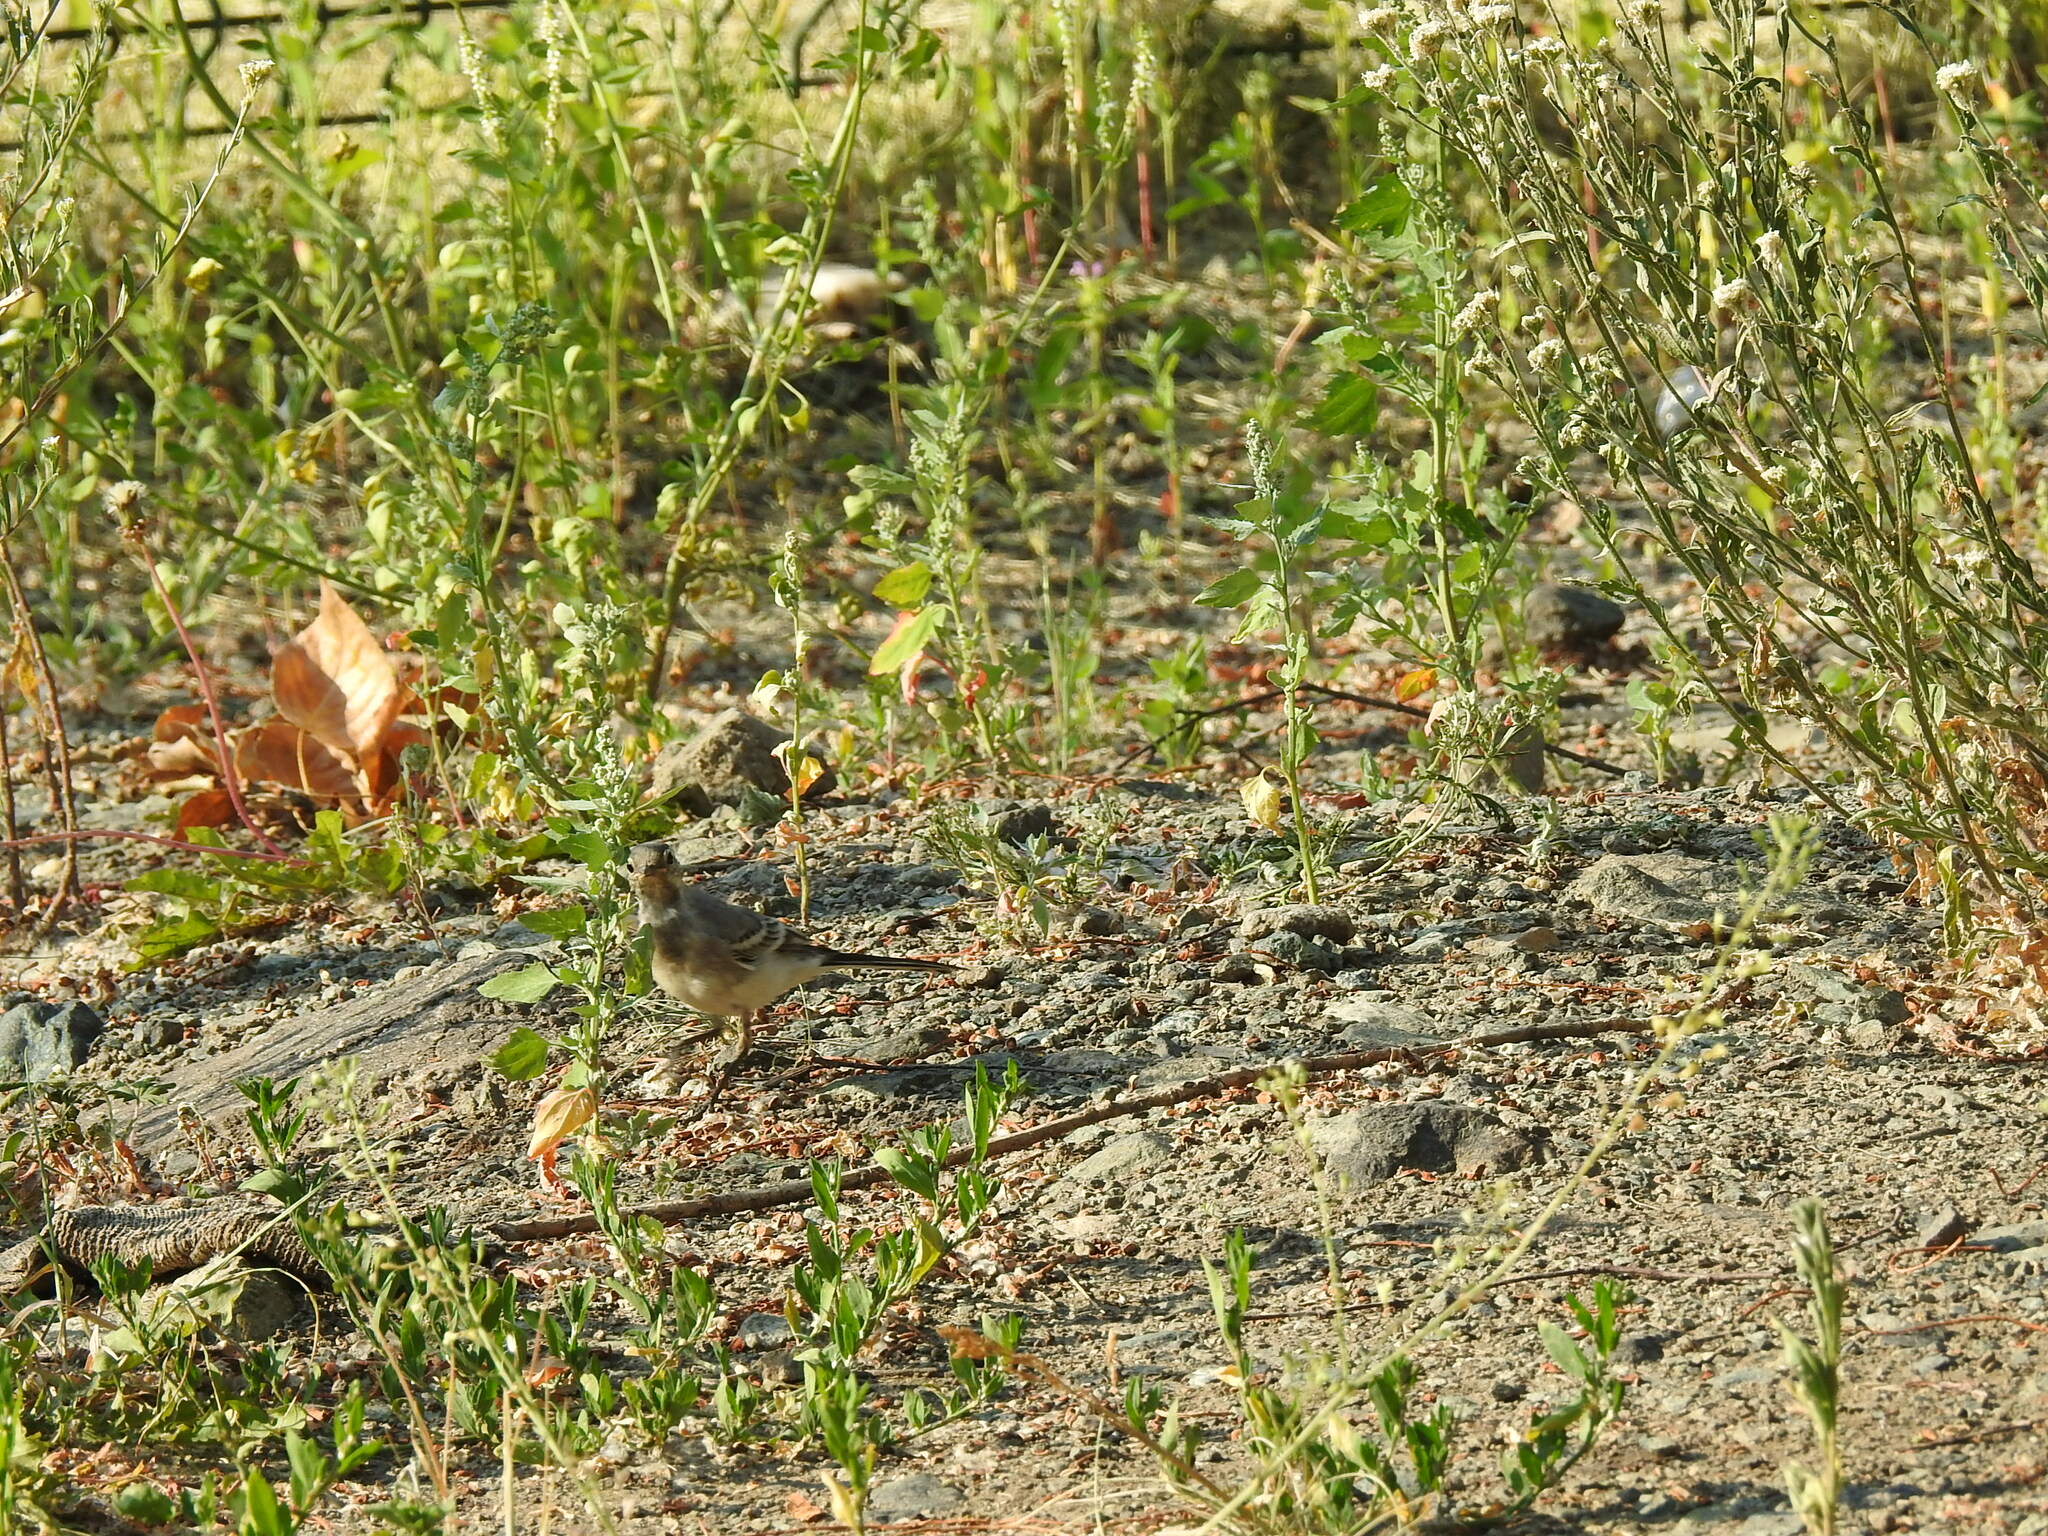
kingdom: Animalia
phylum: Chordata
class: Aves
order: Passeriformes
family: Motacillidae
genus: Motacilla
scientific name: Motacilla alba
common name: White wagtail
